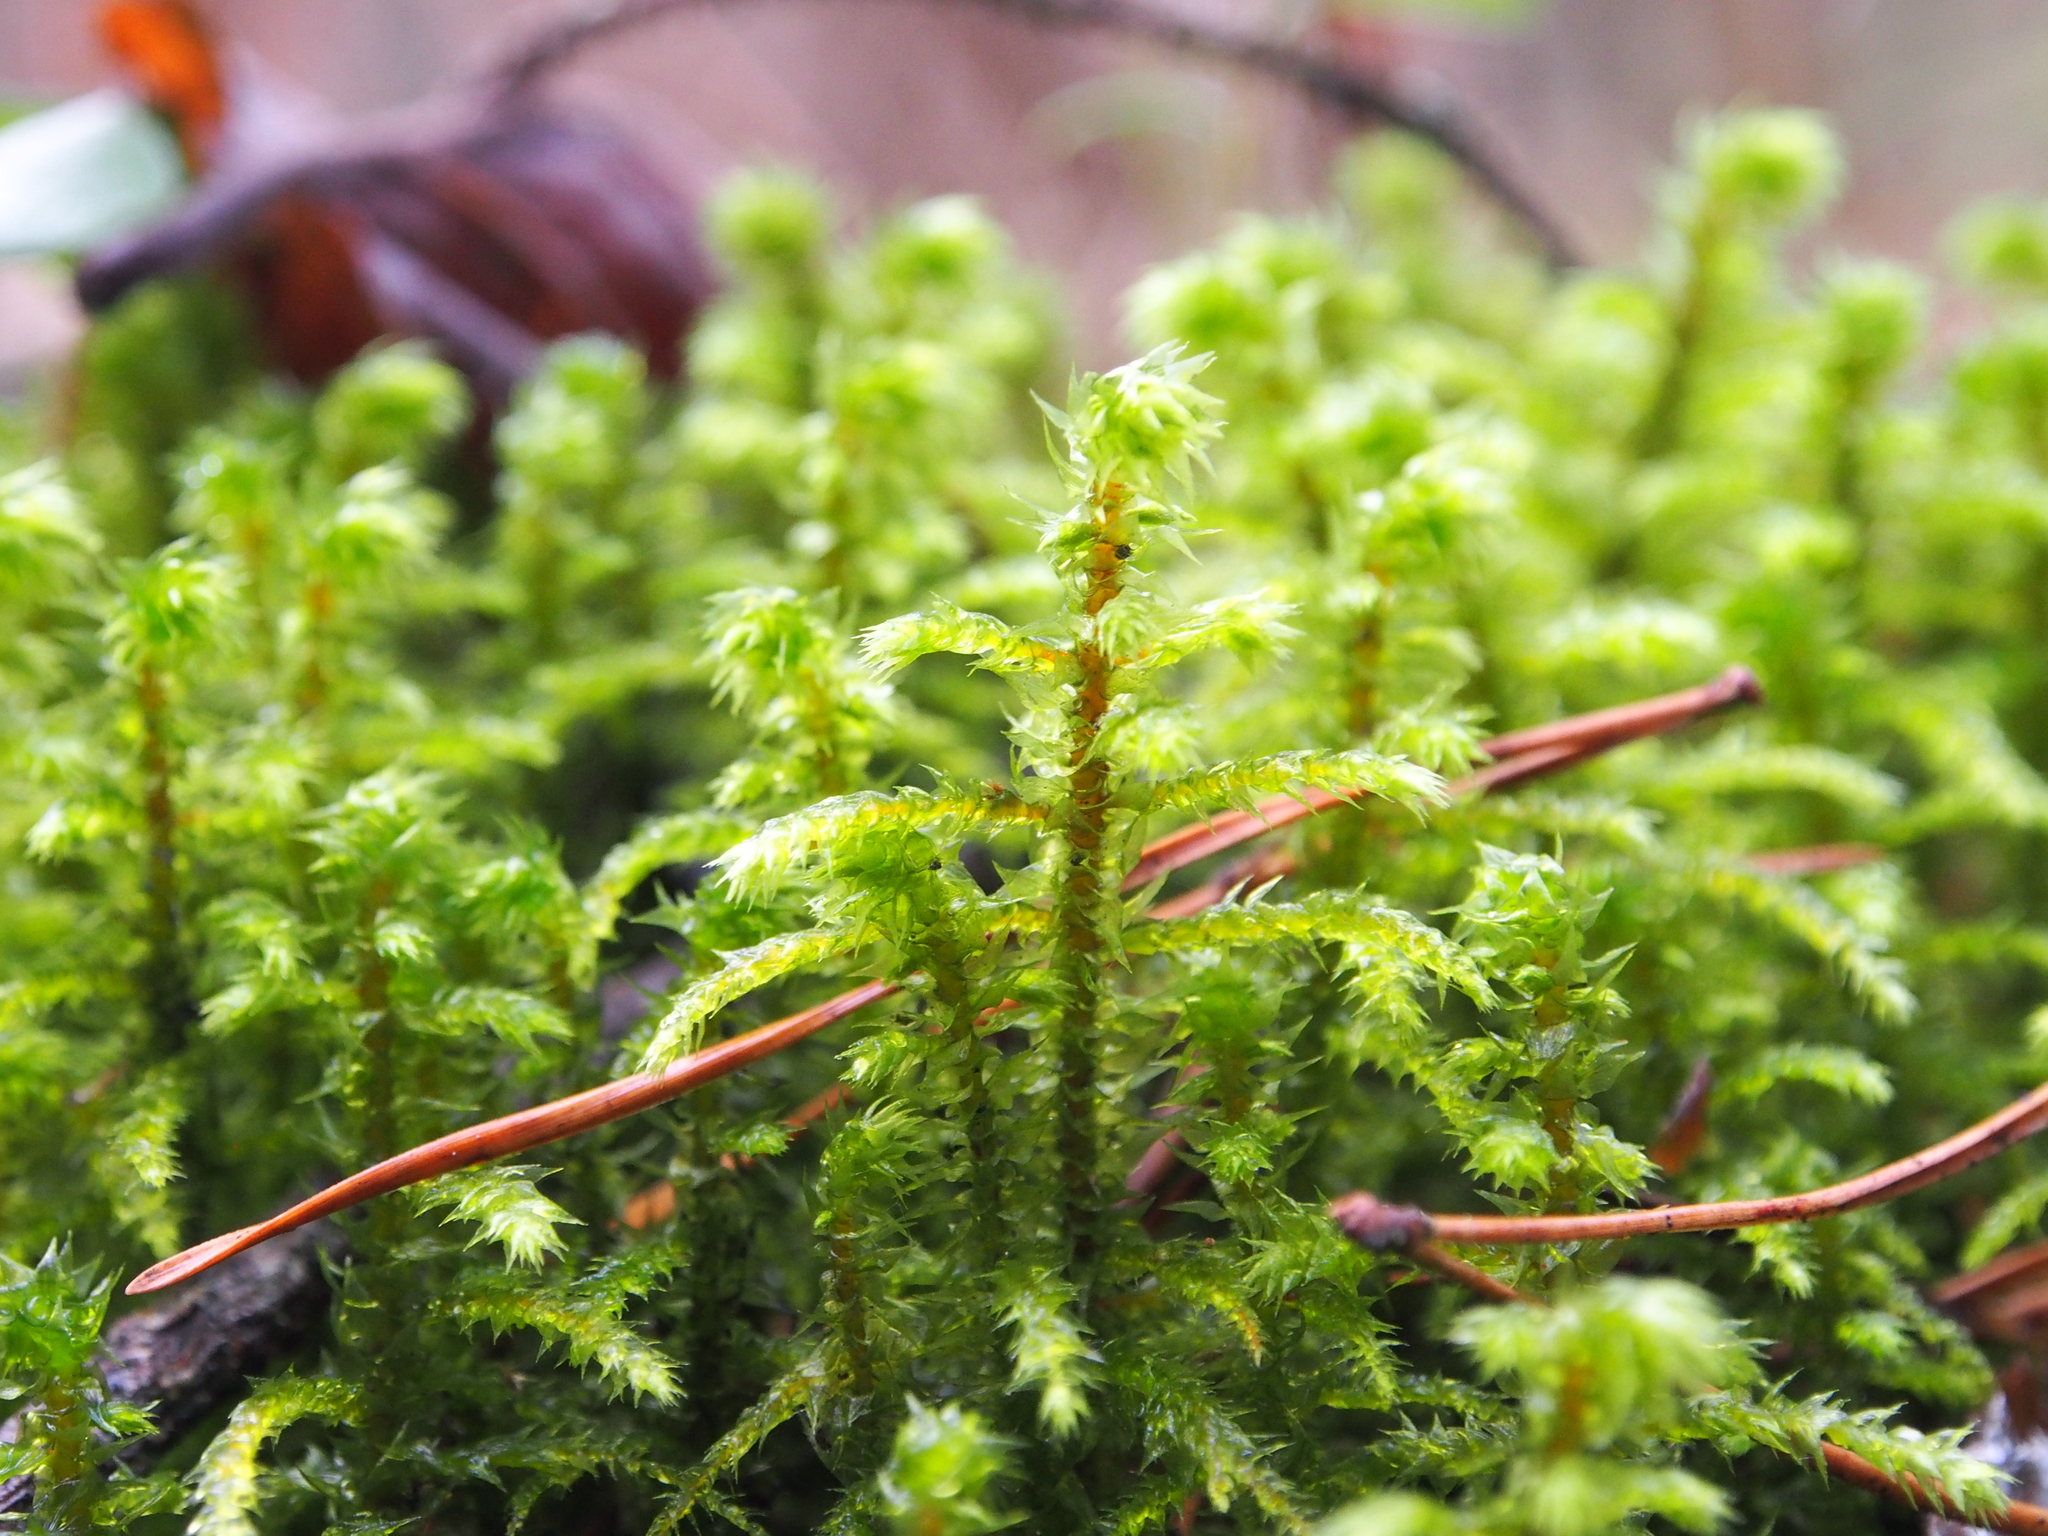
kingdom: Plantae
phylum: Bryophyta
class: Bryopsida
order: Hypnales
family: Hylocomiaceae
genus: Hylocomiadelphus
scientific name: Hylocomiadelphus triquetrus
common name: Rough goose neck moss
